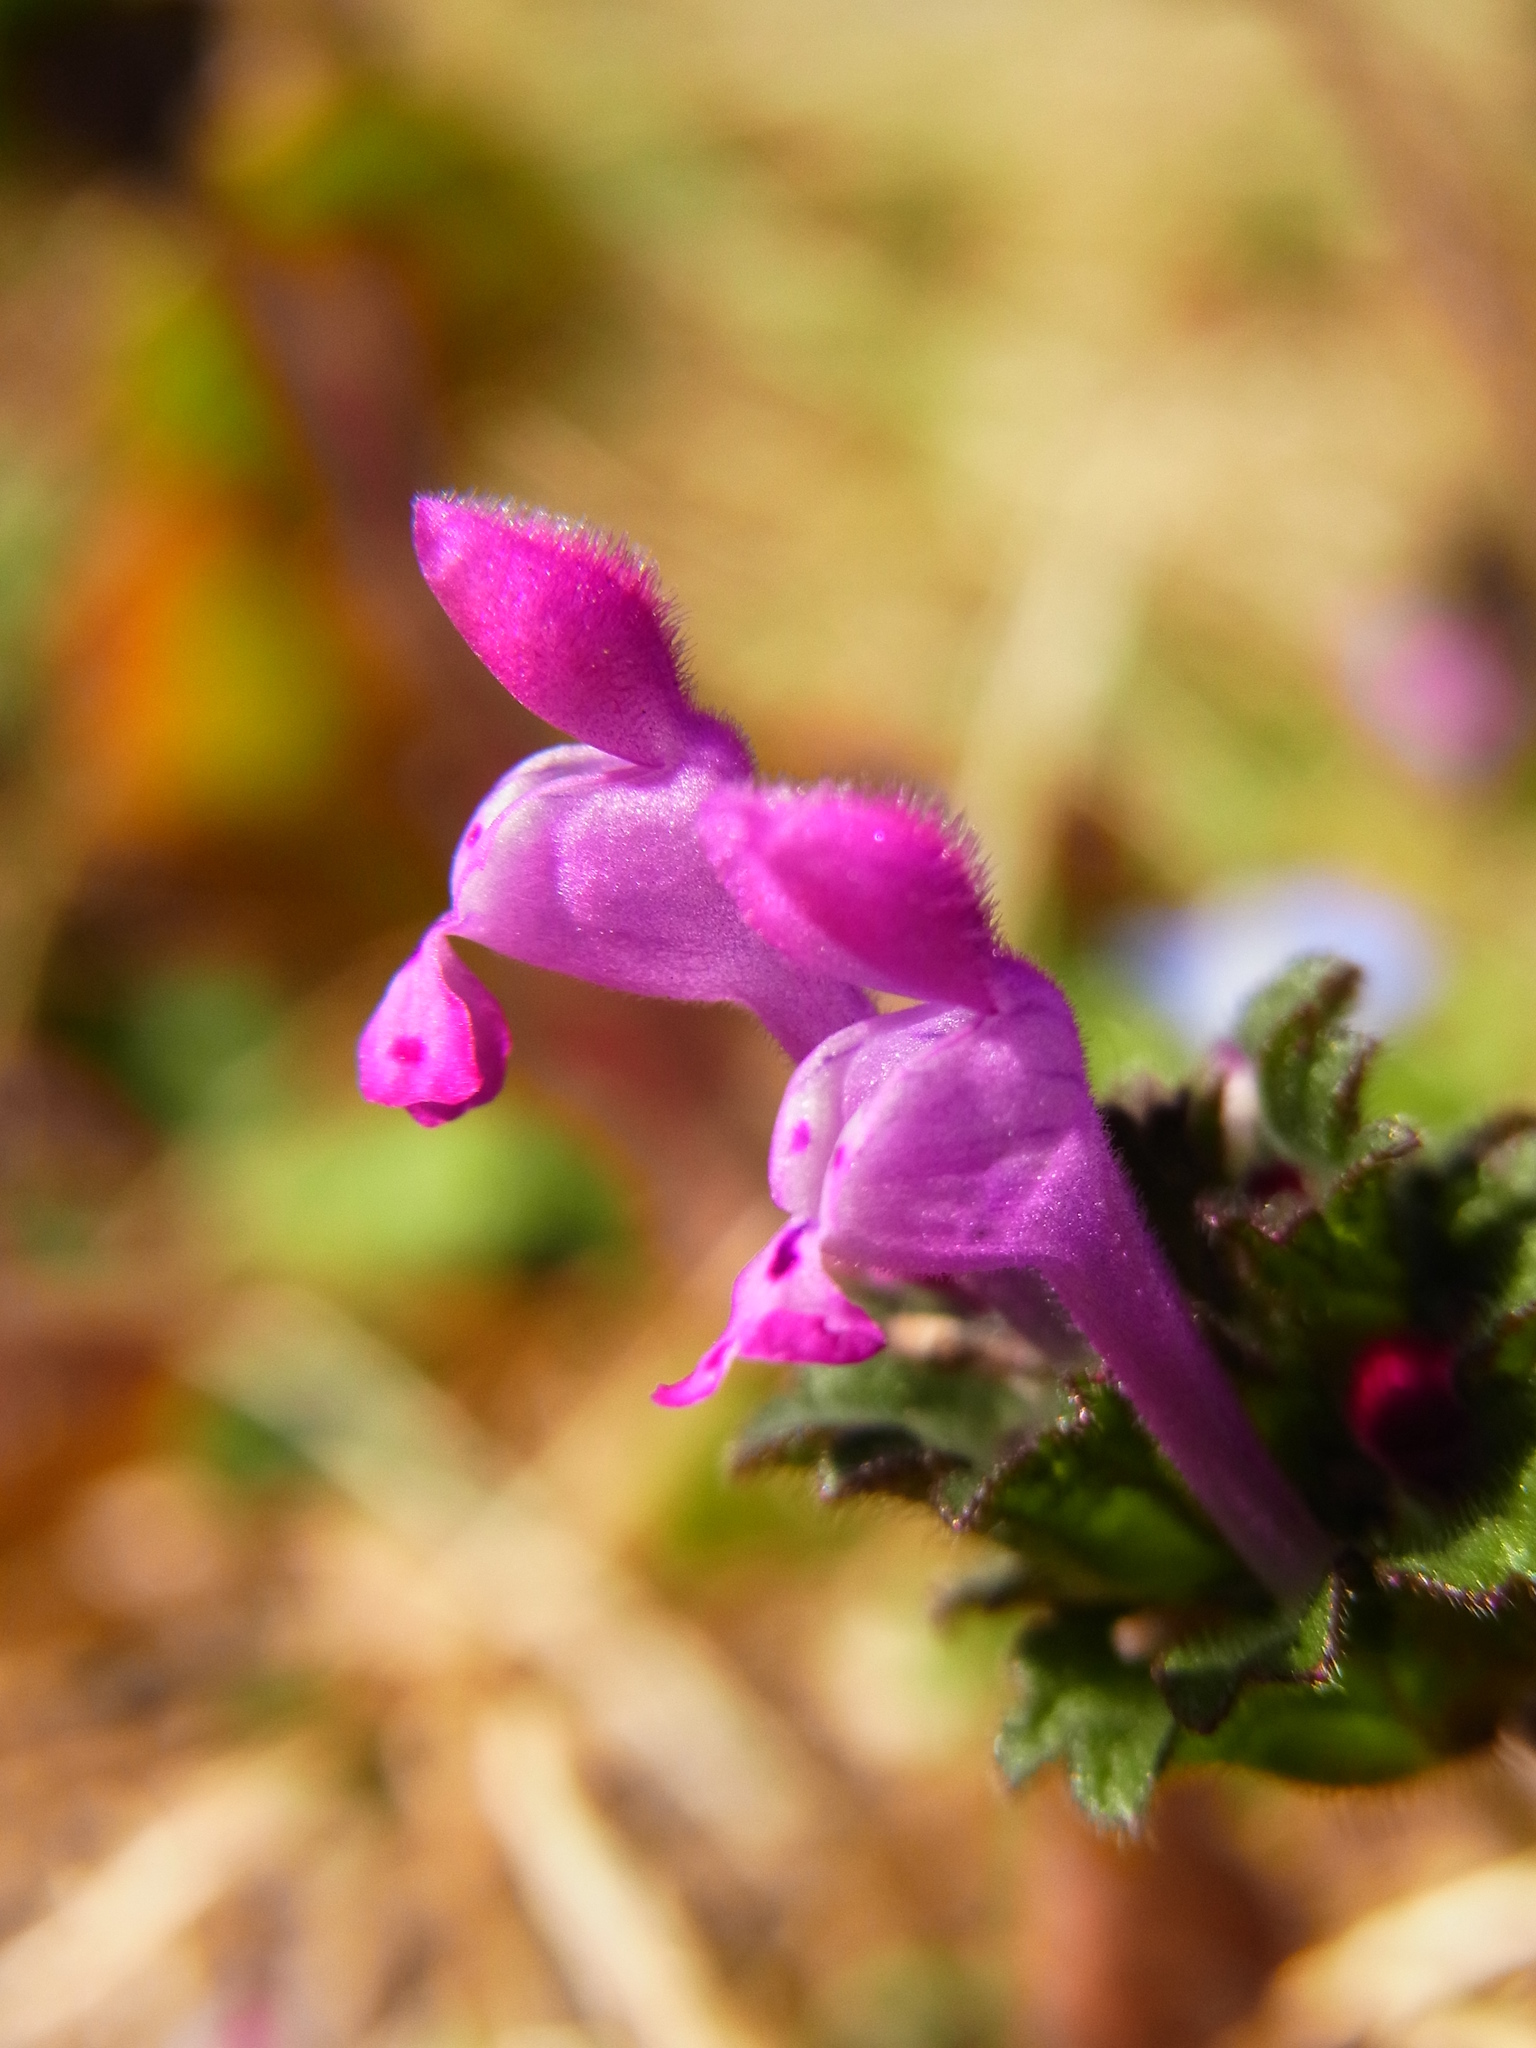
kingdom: Plantae
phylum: Tracheophyta
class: Magnoliopsida
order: Lamiales
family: Lamiaceae
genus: Lamium
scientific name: Lamium amplexicaule
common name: Henbit dead-nettle
